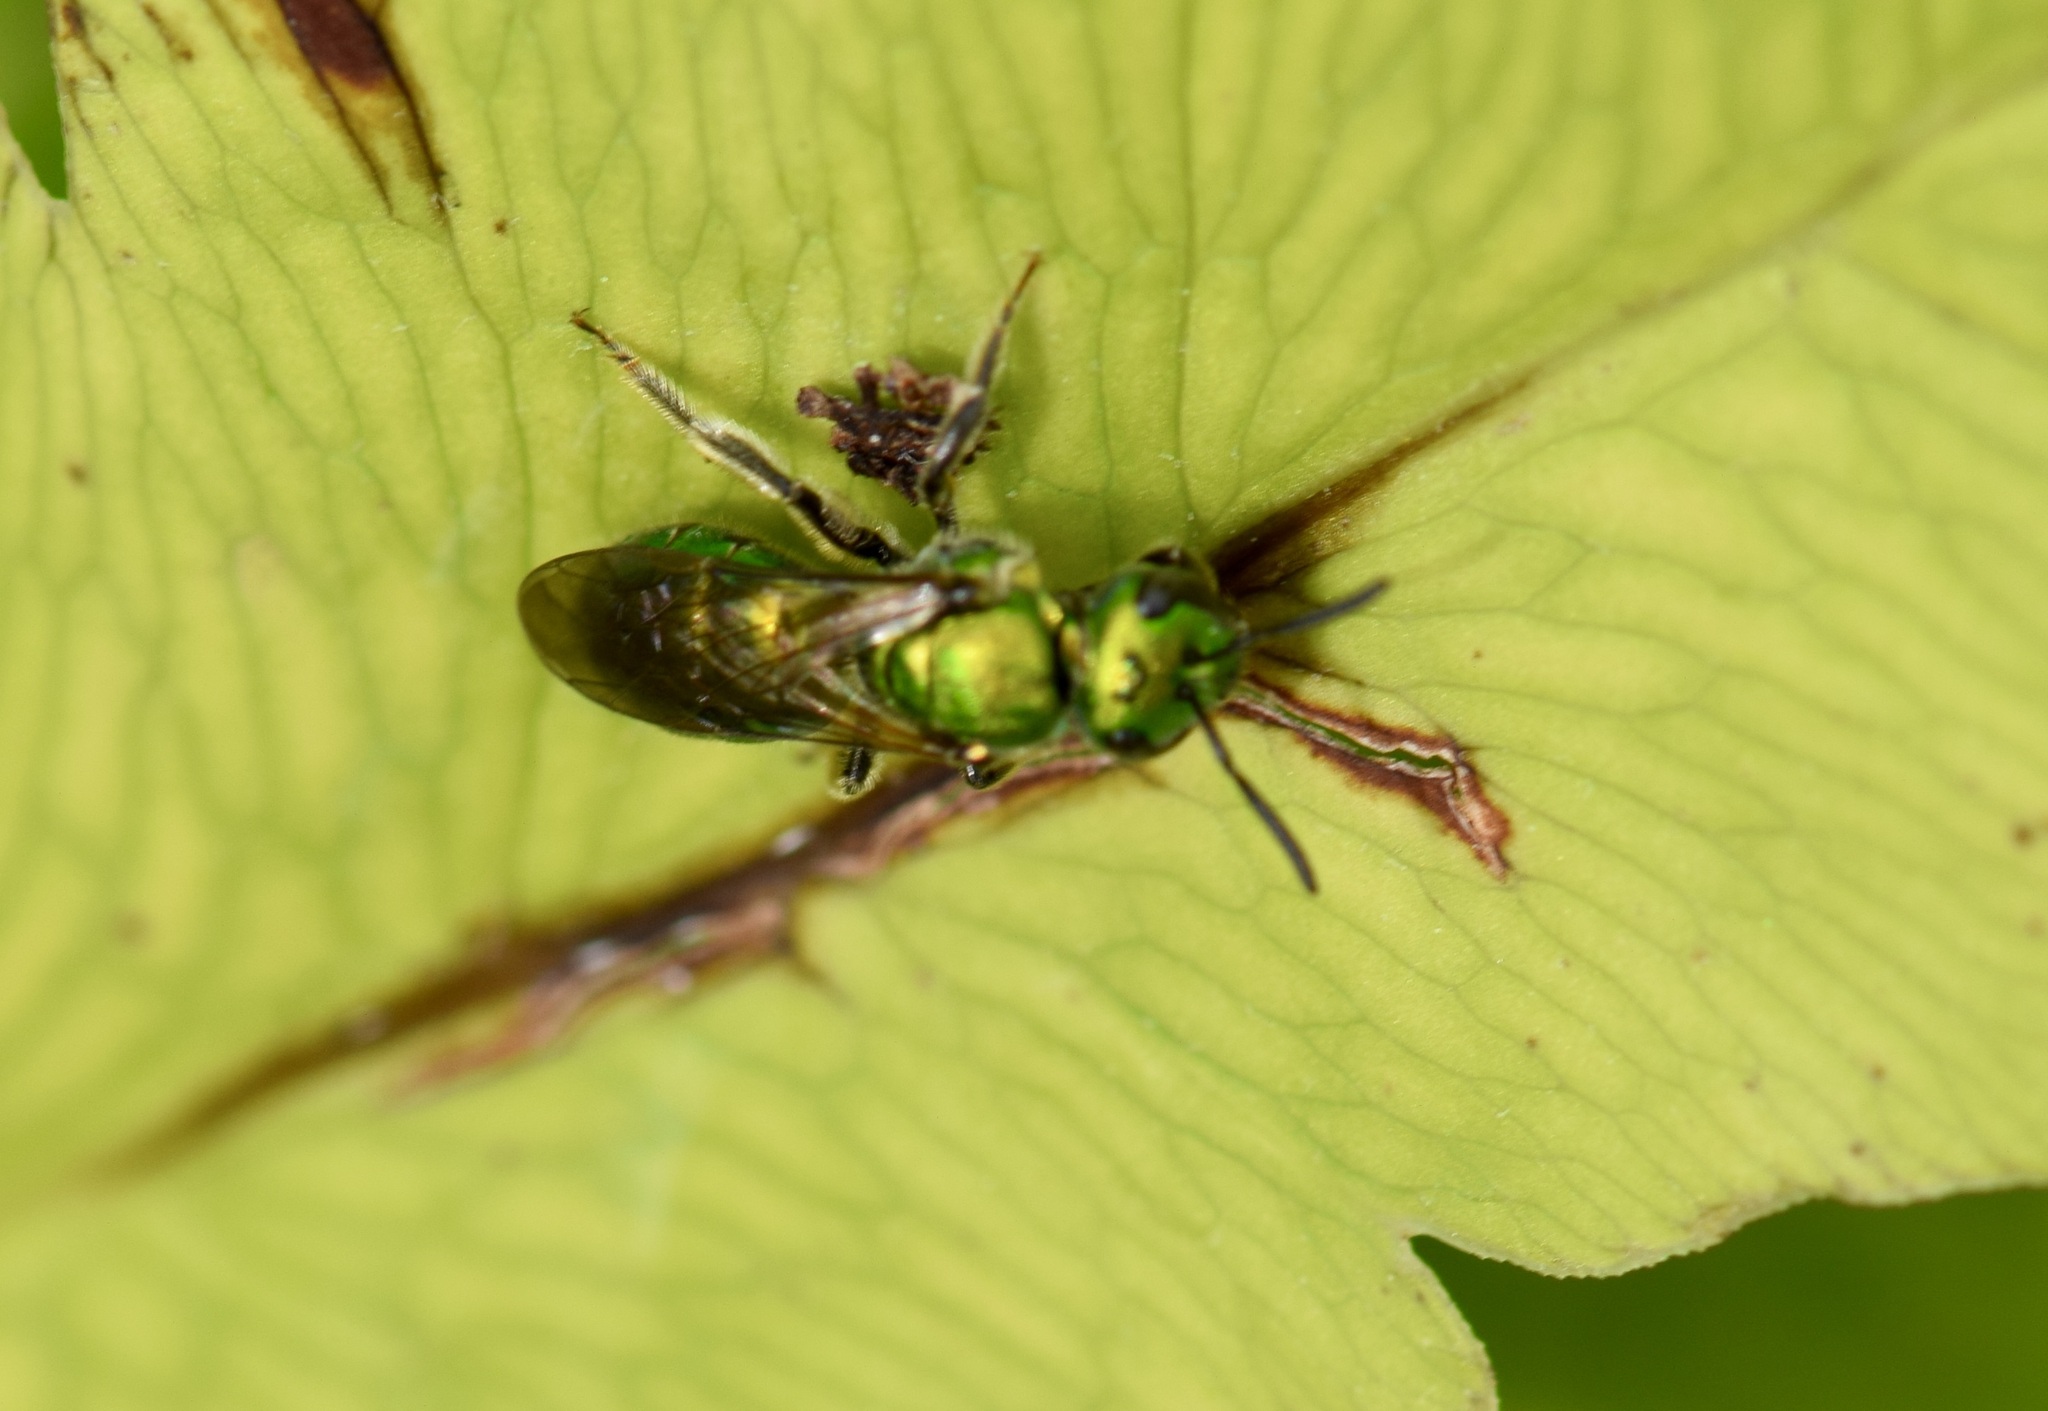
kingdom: Animalia
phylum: Arthropoda
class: Insecta
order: Hymenoptera
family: Halictidae
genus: Augochlora
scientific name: Augochlora pura
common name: Pure green sweat bee
